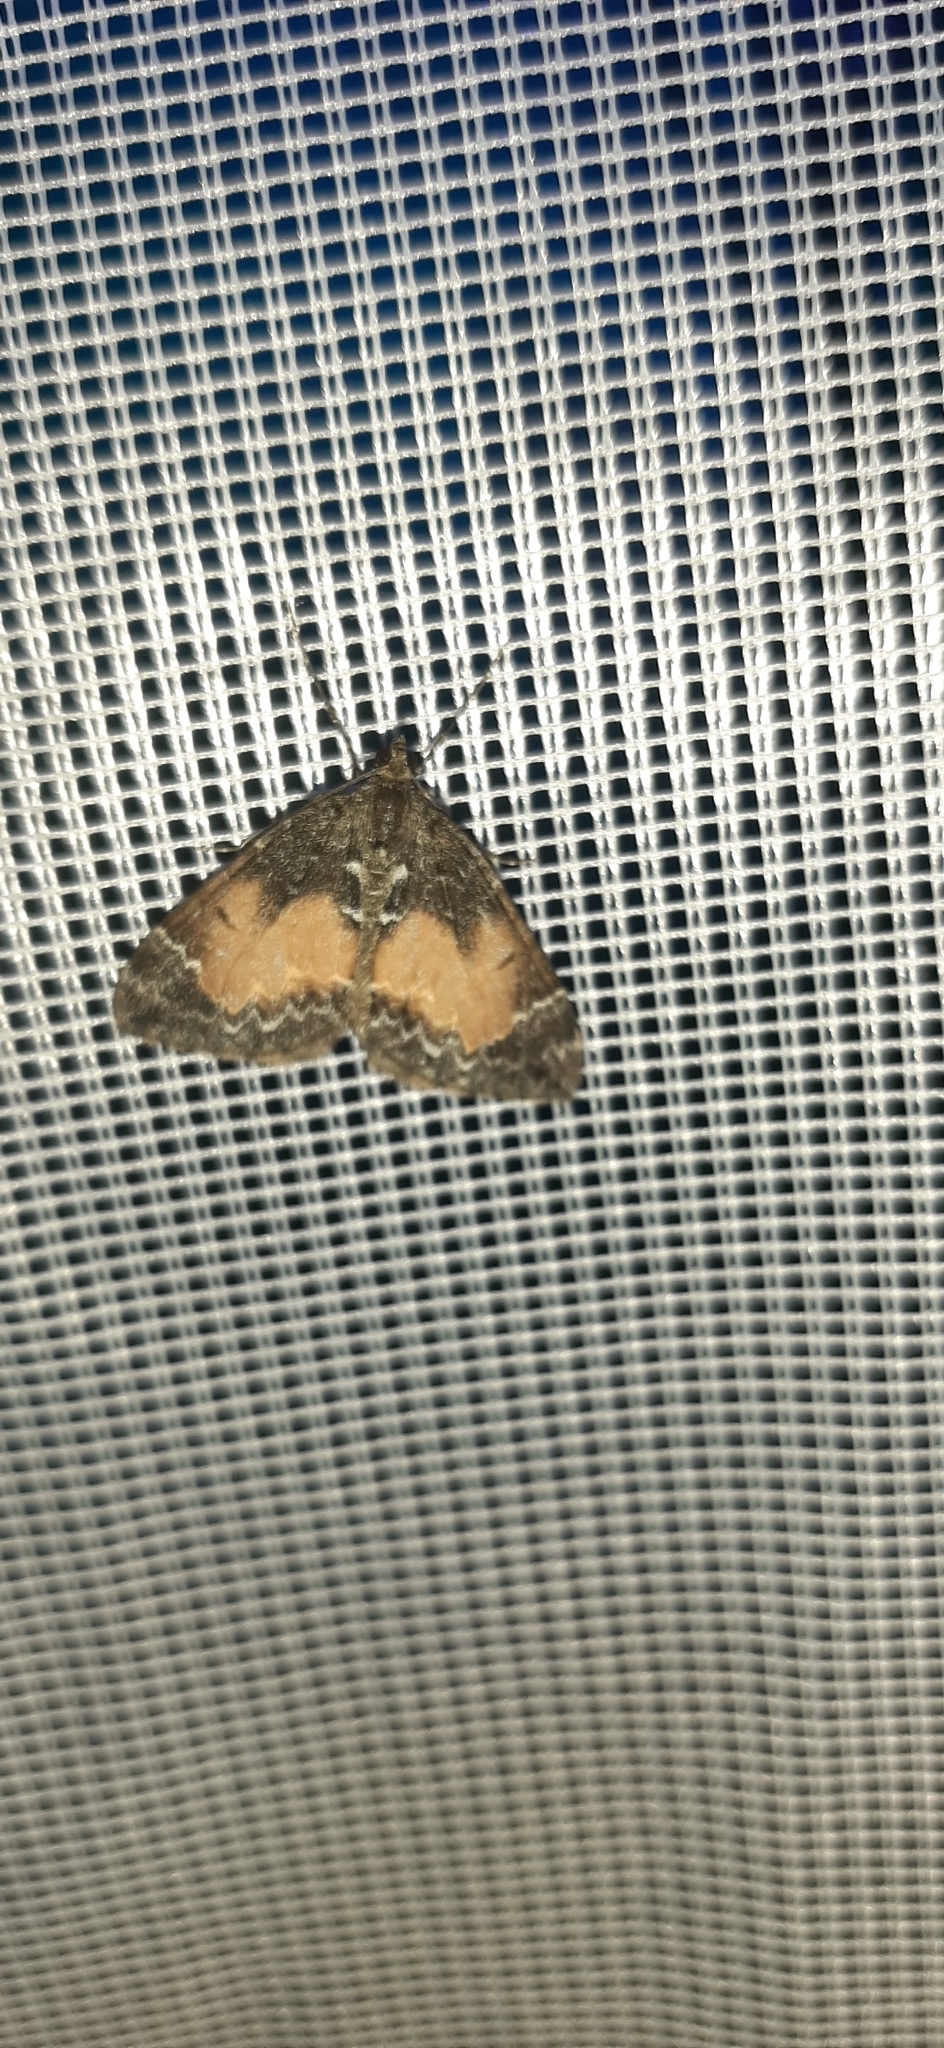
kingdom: Animalia
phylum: Arthropoda
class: Insecta
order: Lepidoptera
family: Geometridae
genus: Dysstroma
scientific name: Dysstroma truncata
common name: Common marbled carpet
